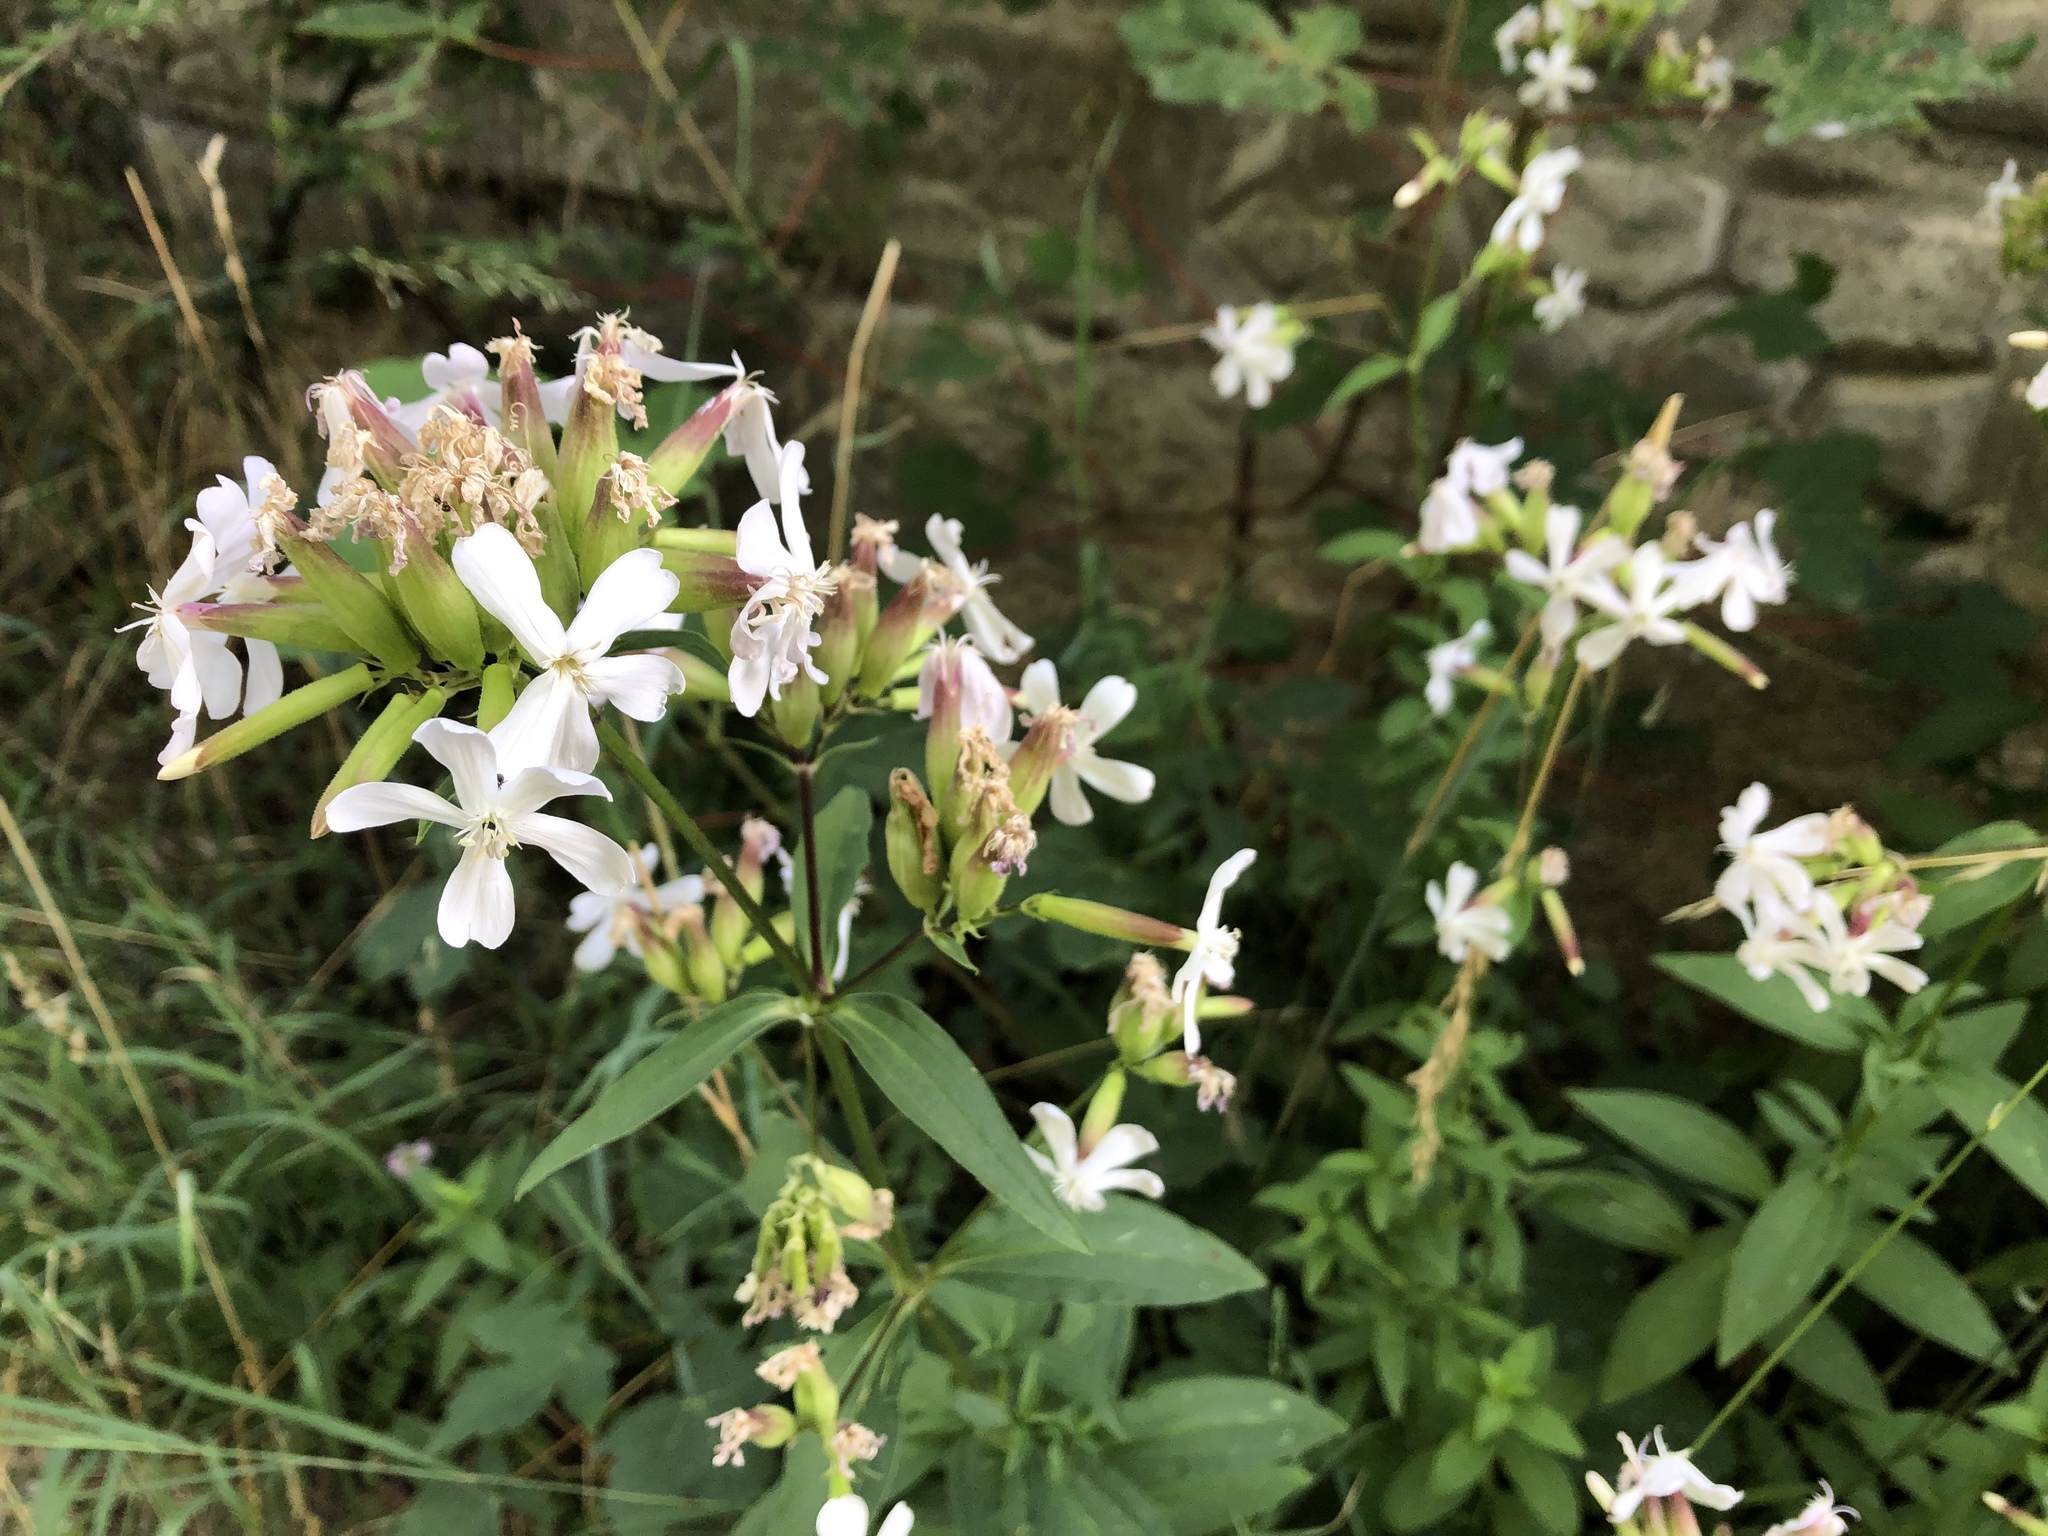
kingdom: Plantae
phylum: Tracheophyta
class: Magnoliopsida
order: Caryophyllales
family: Caryophyllaceae
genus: Saponaria
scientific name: Saponaria officinalis
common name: Soapwort
